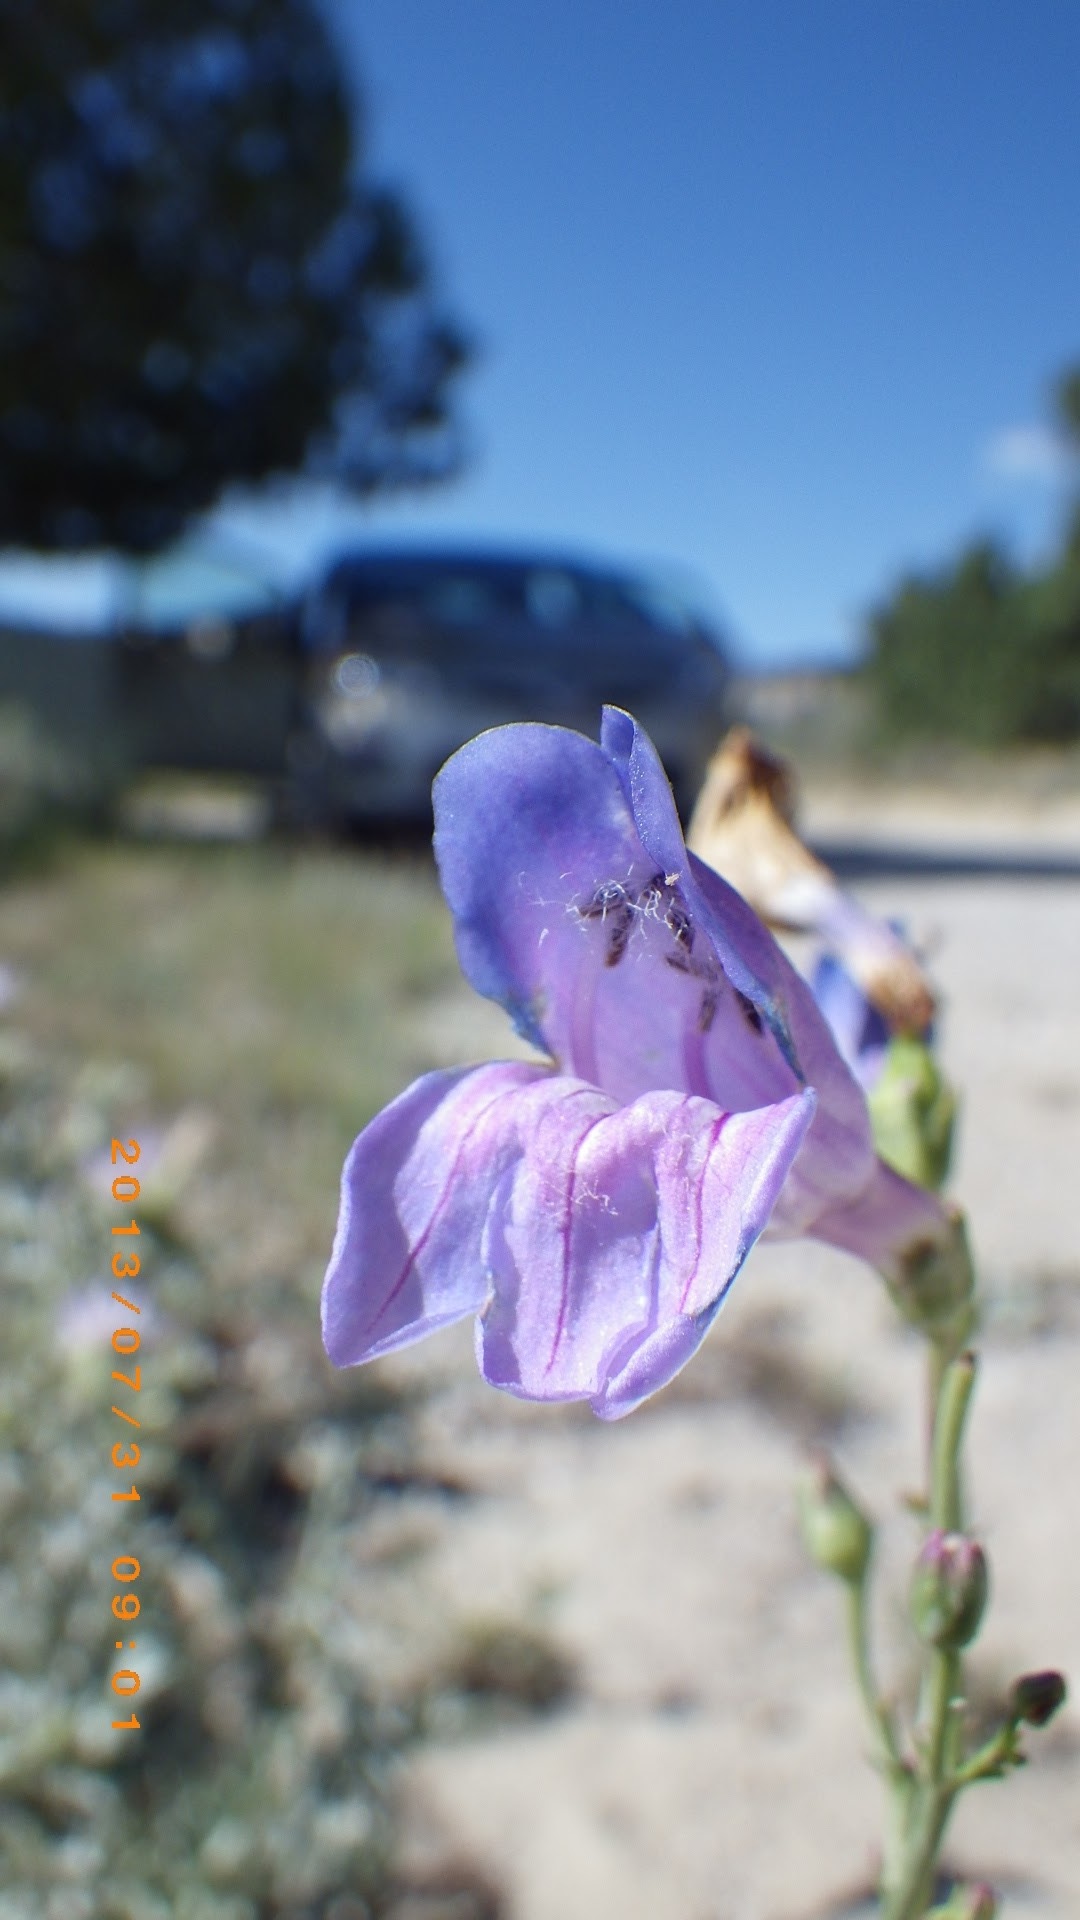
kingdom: Plantae
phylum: Tracheophyta
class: Magnoliopsida
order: Lamiales
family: Plantaginaceae
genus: Penstemon
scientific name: Penstemon comarrhenus
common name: Dusty penstemon
